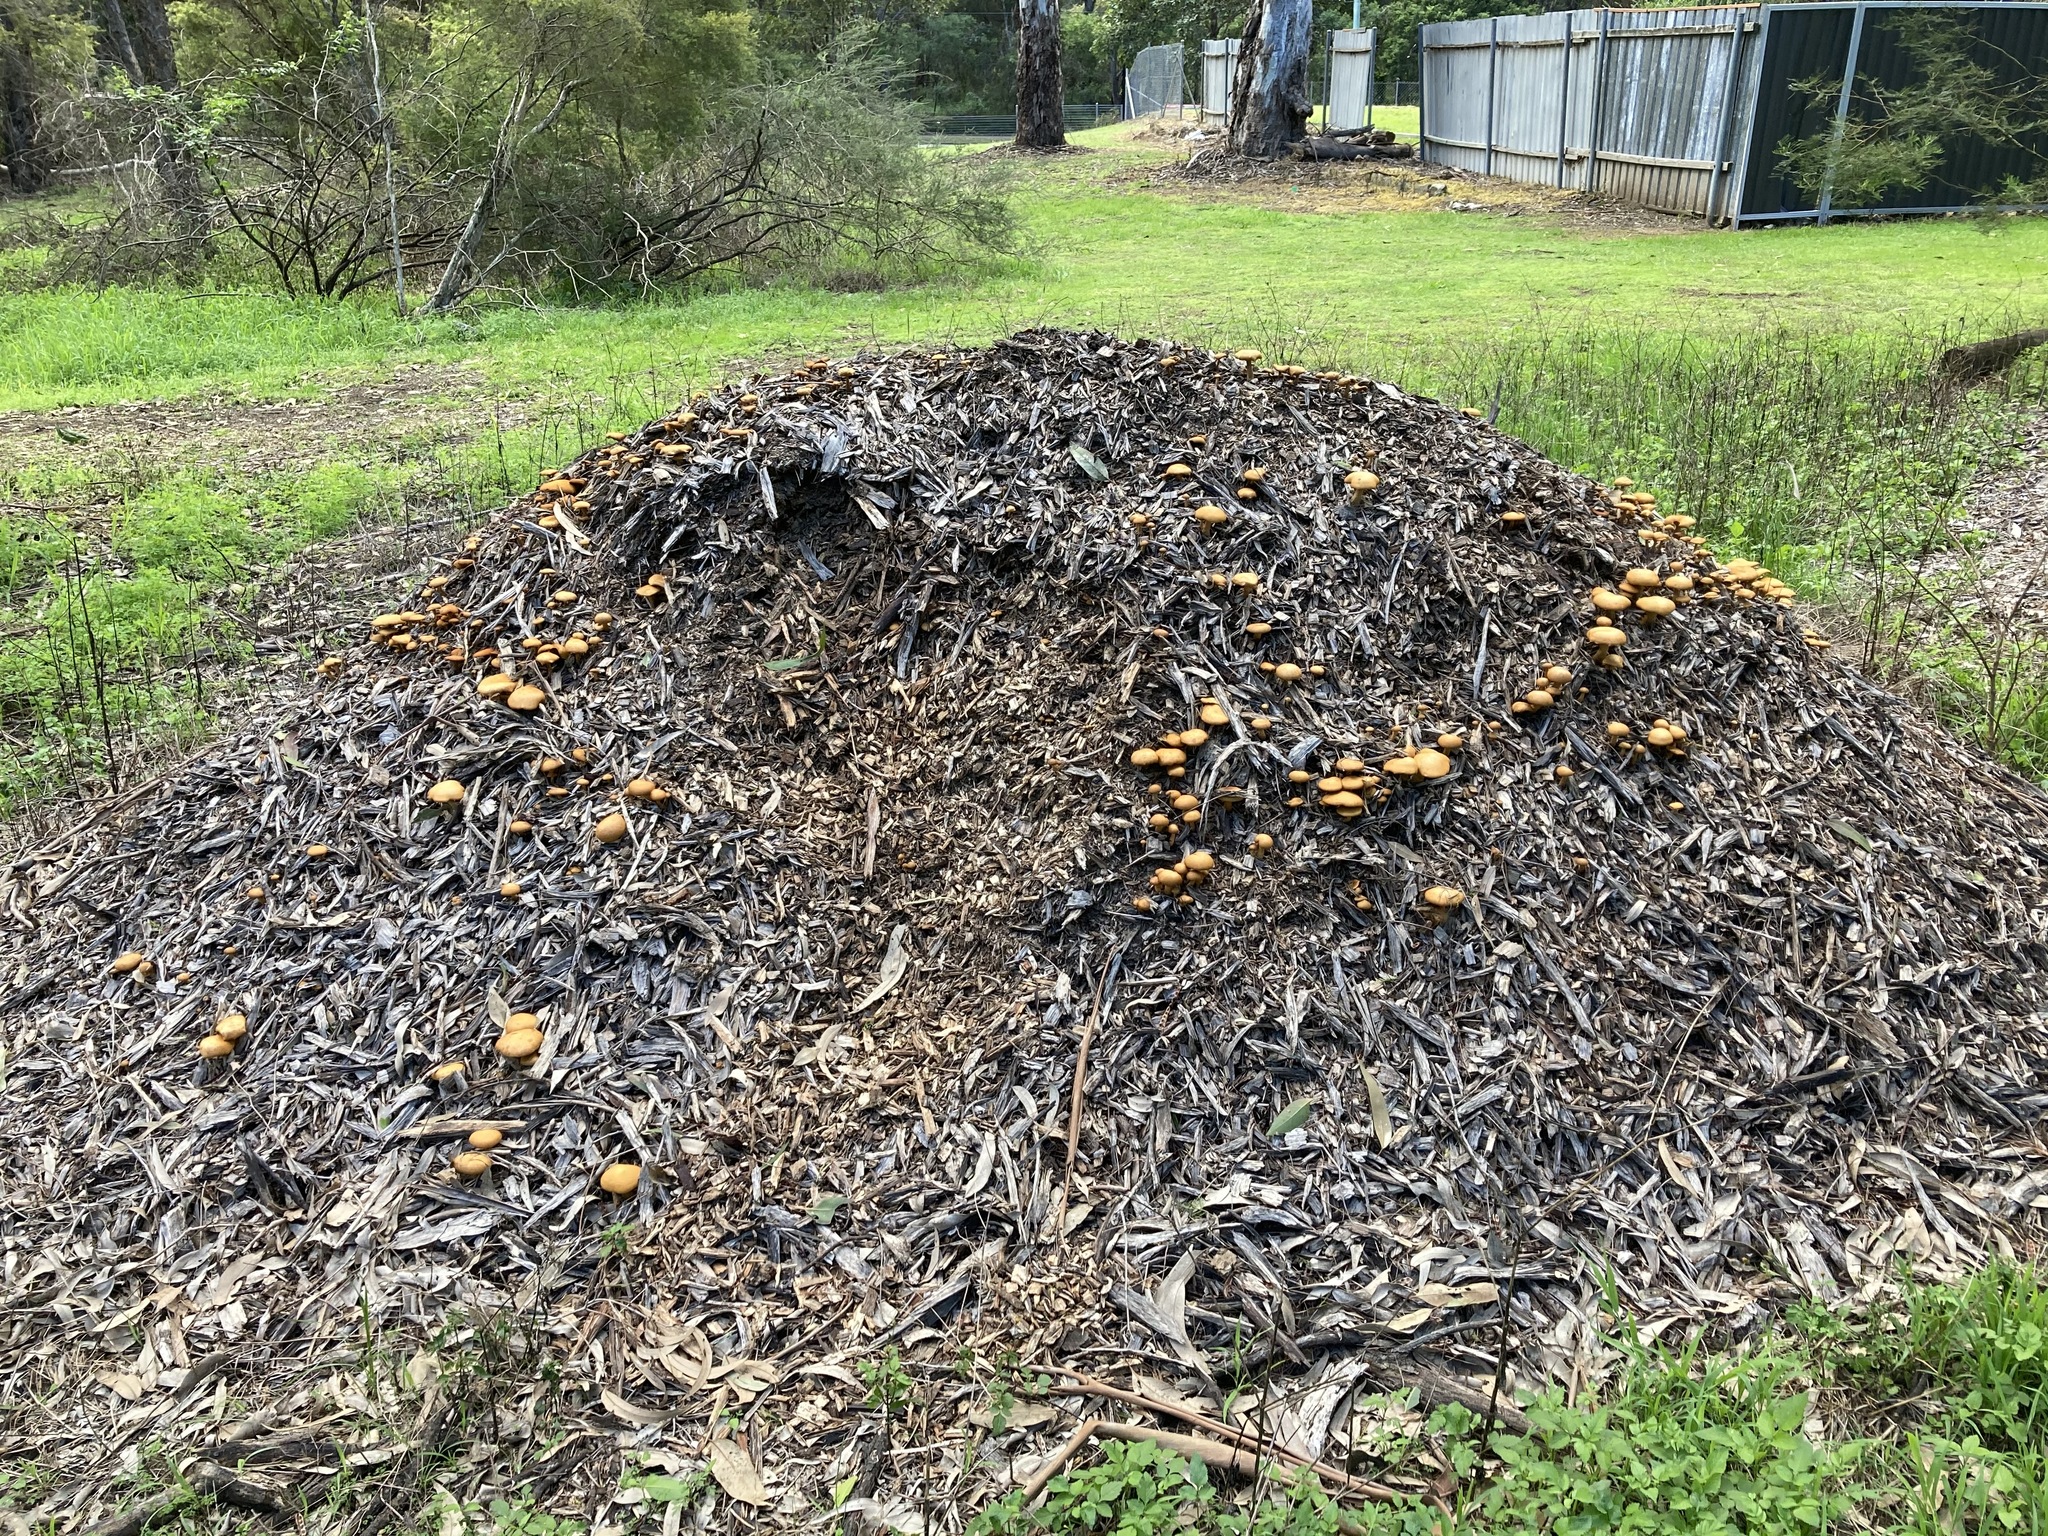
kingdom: Fungi
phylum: Basidiomycota
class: Agaricomycetes
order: Agaricales
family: Hymenogastraceae
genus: Gymnopilus
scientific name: Gymnopilus junonius
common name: Spectacular rustgill
